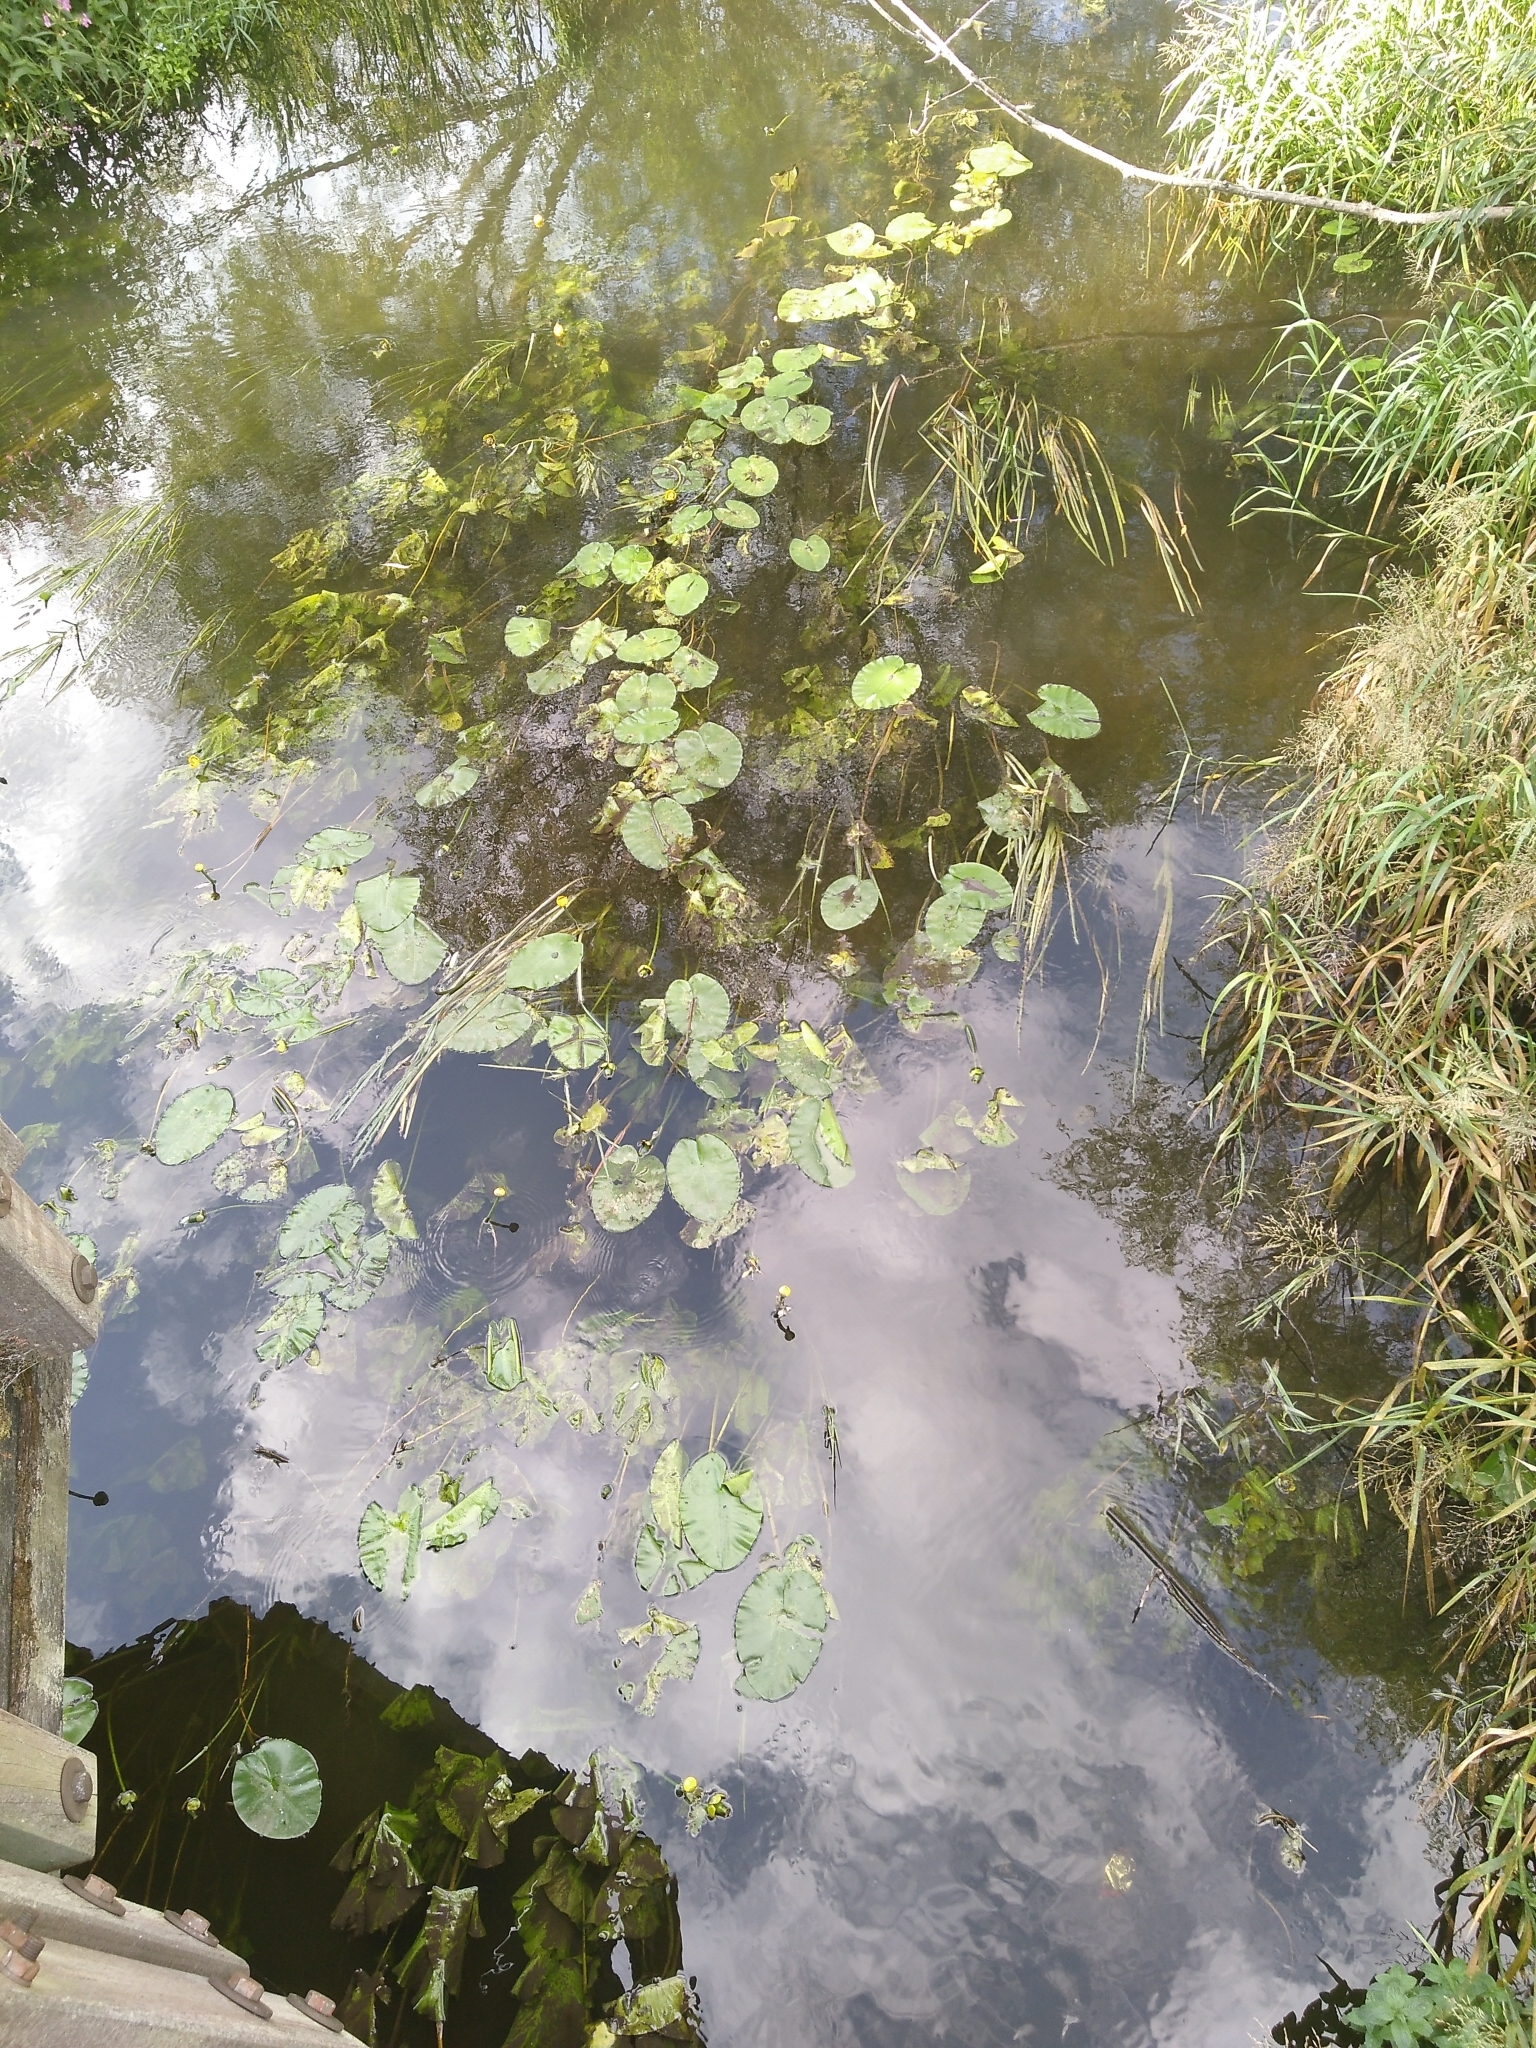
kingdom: Plantae
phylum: Tracheophyta
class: Magnoliopsida
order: Nymphaeales
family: Nymphaeaceae
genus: Nuphar
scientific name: Nuphar lutea
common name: Yellow water-lily
